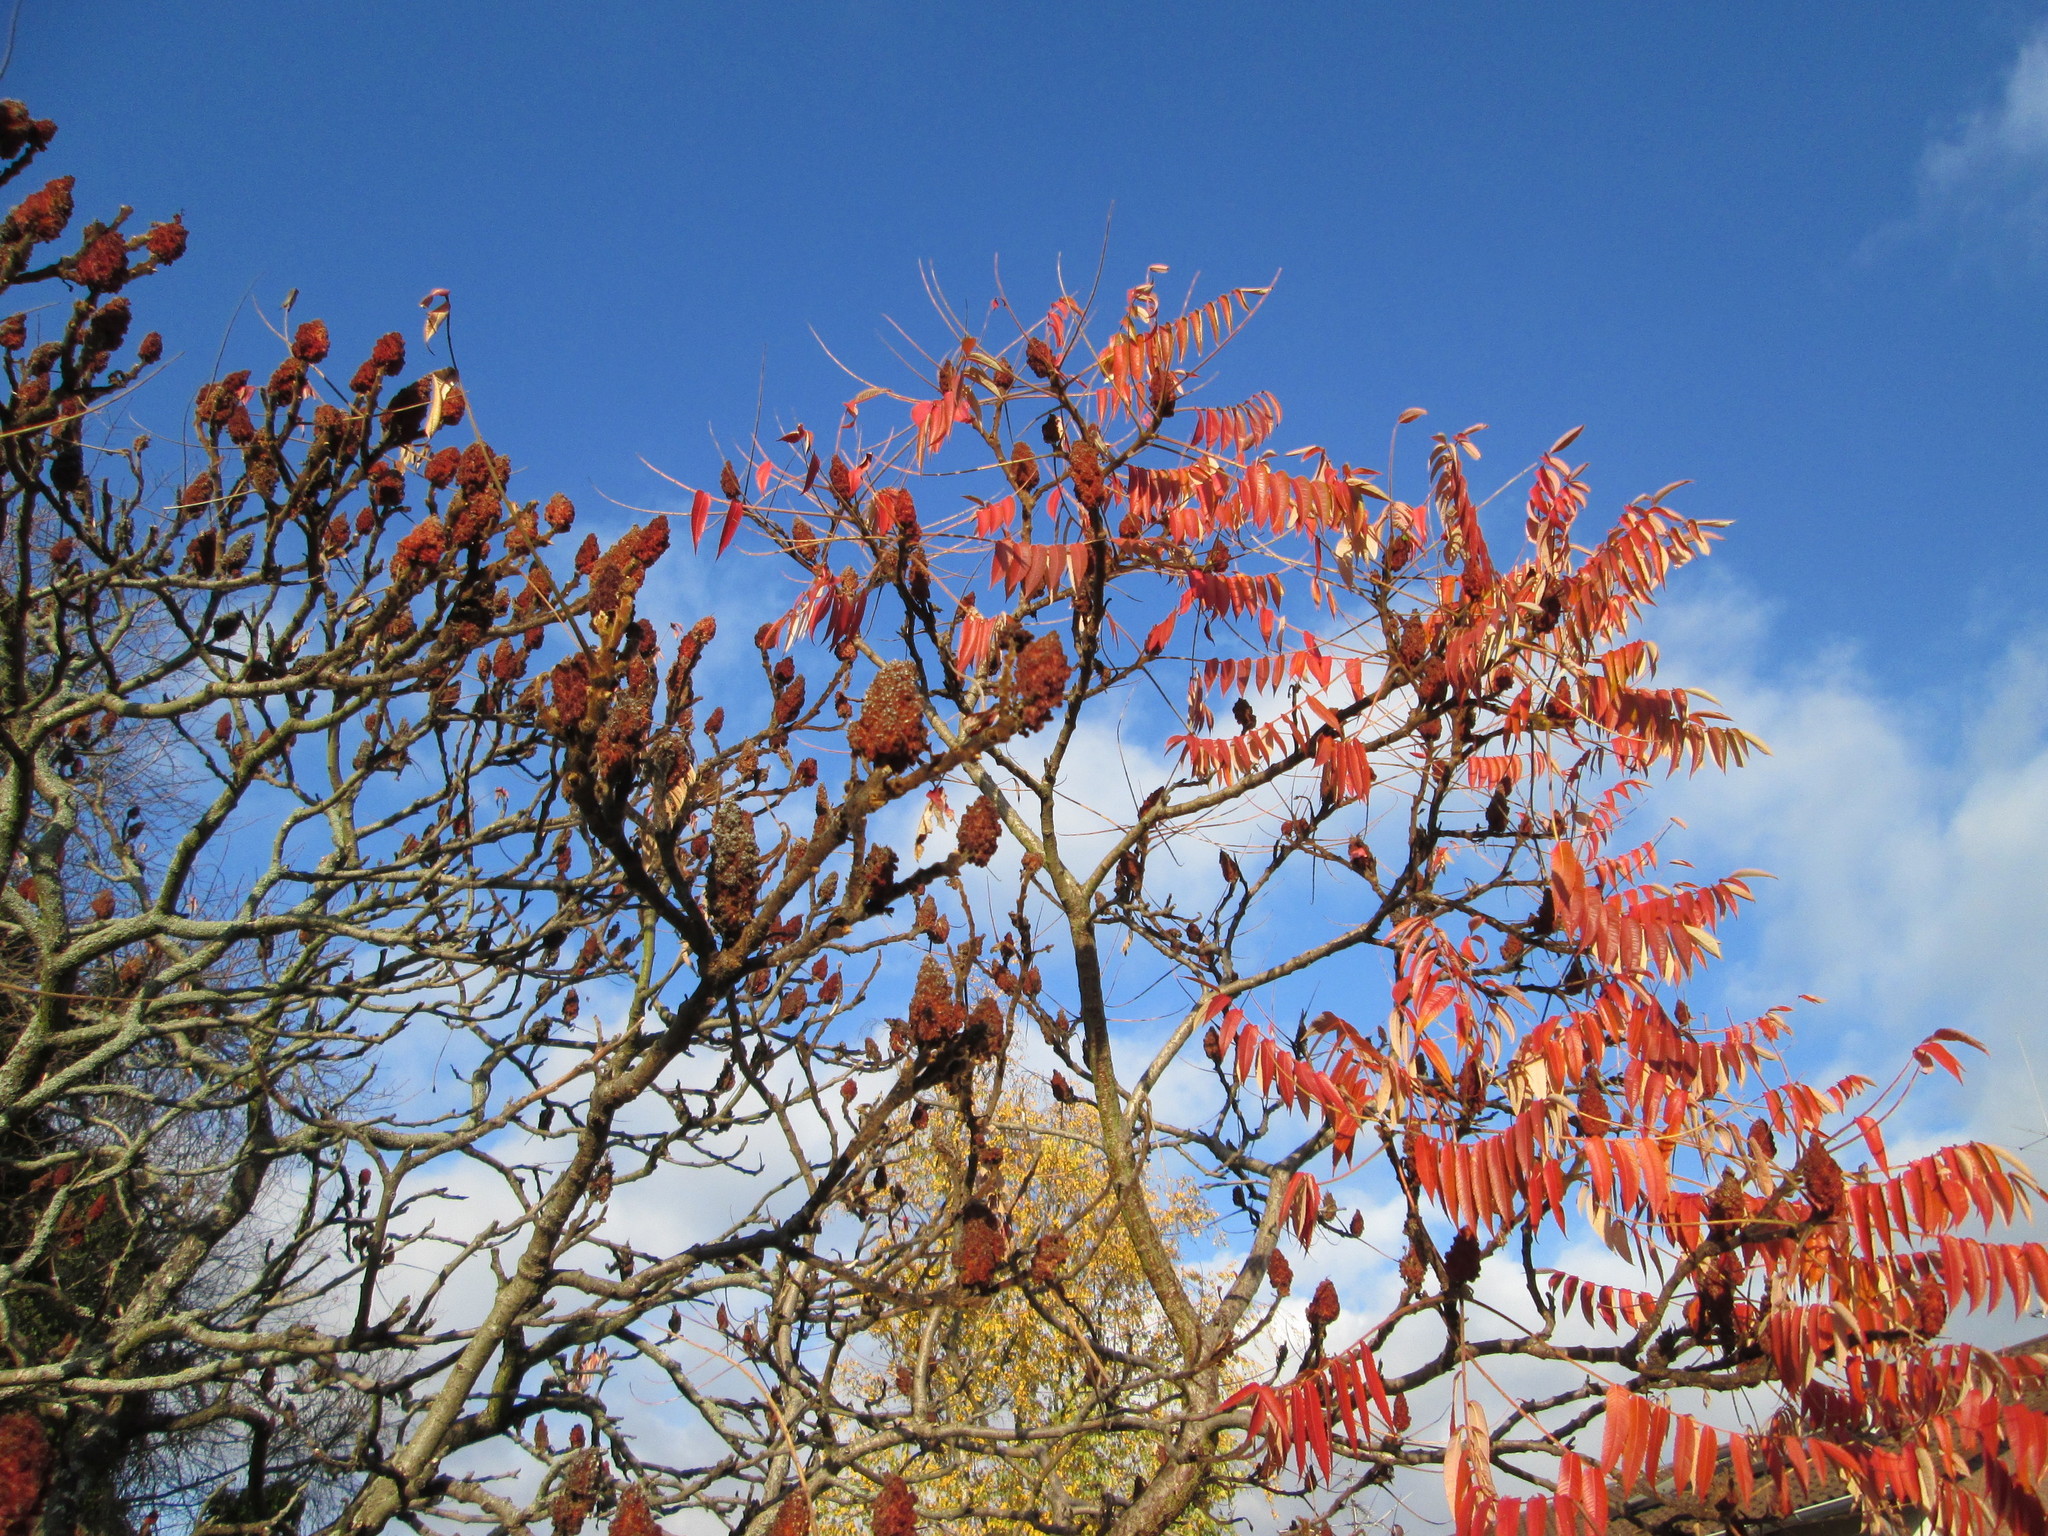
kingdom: Plantae
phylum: Tracheophyta
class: Magnoliopsida
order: Sapindales
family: Anacardiaceae
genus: Rhus
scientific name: Rhus typhina
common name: Staghorn sumac
